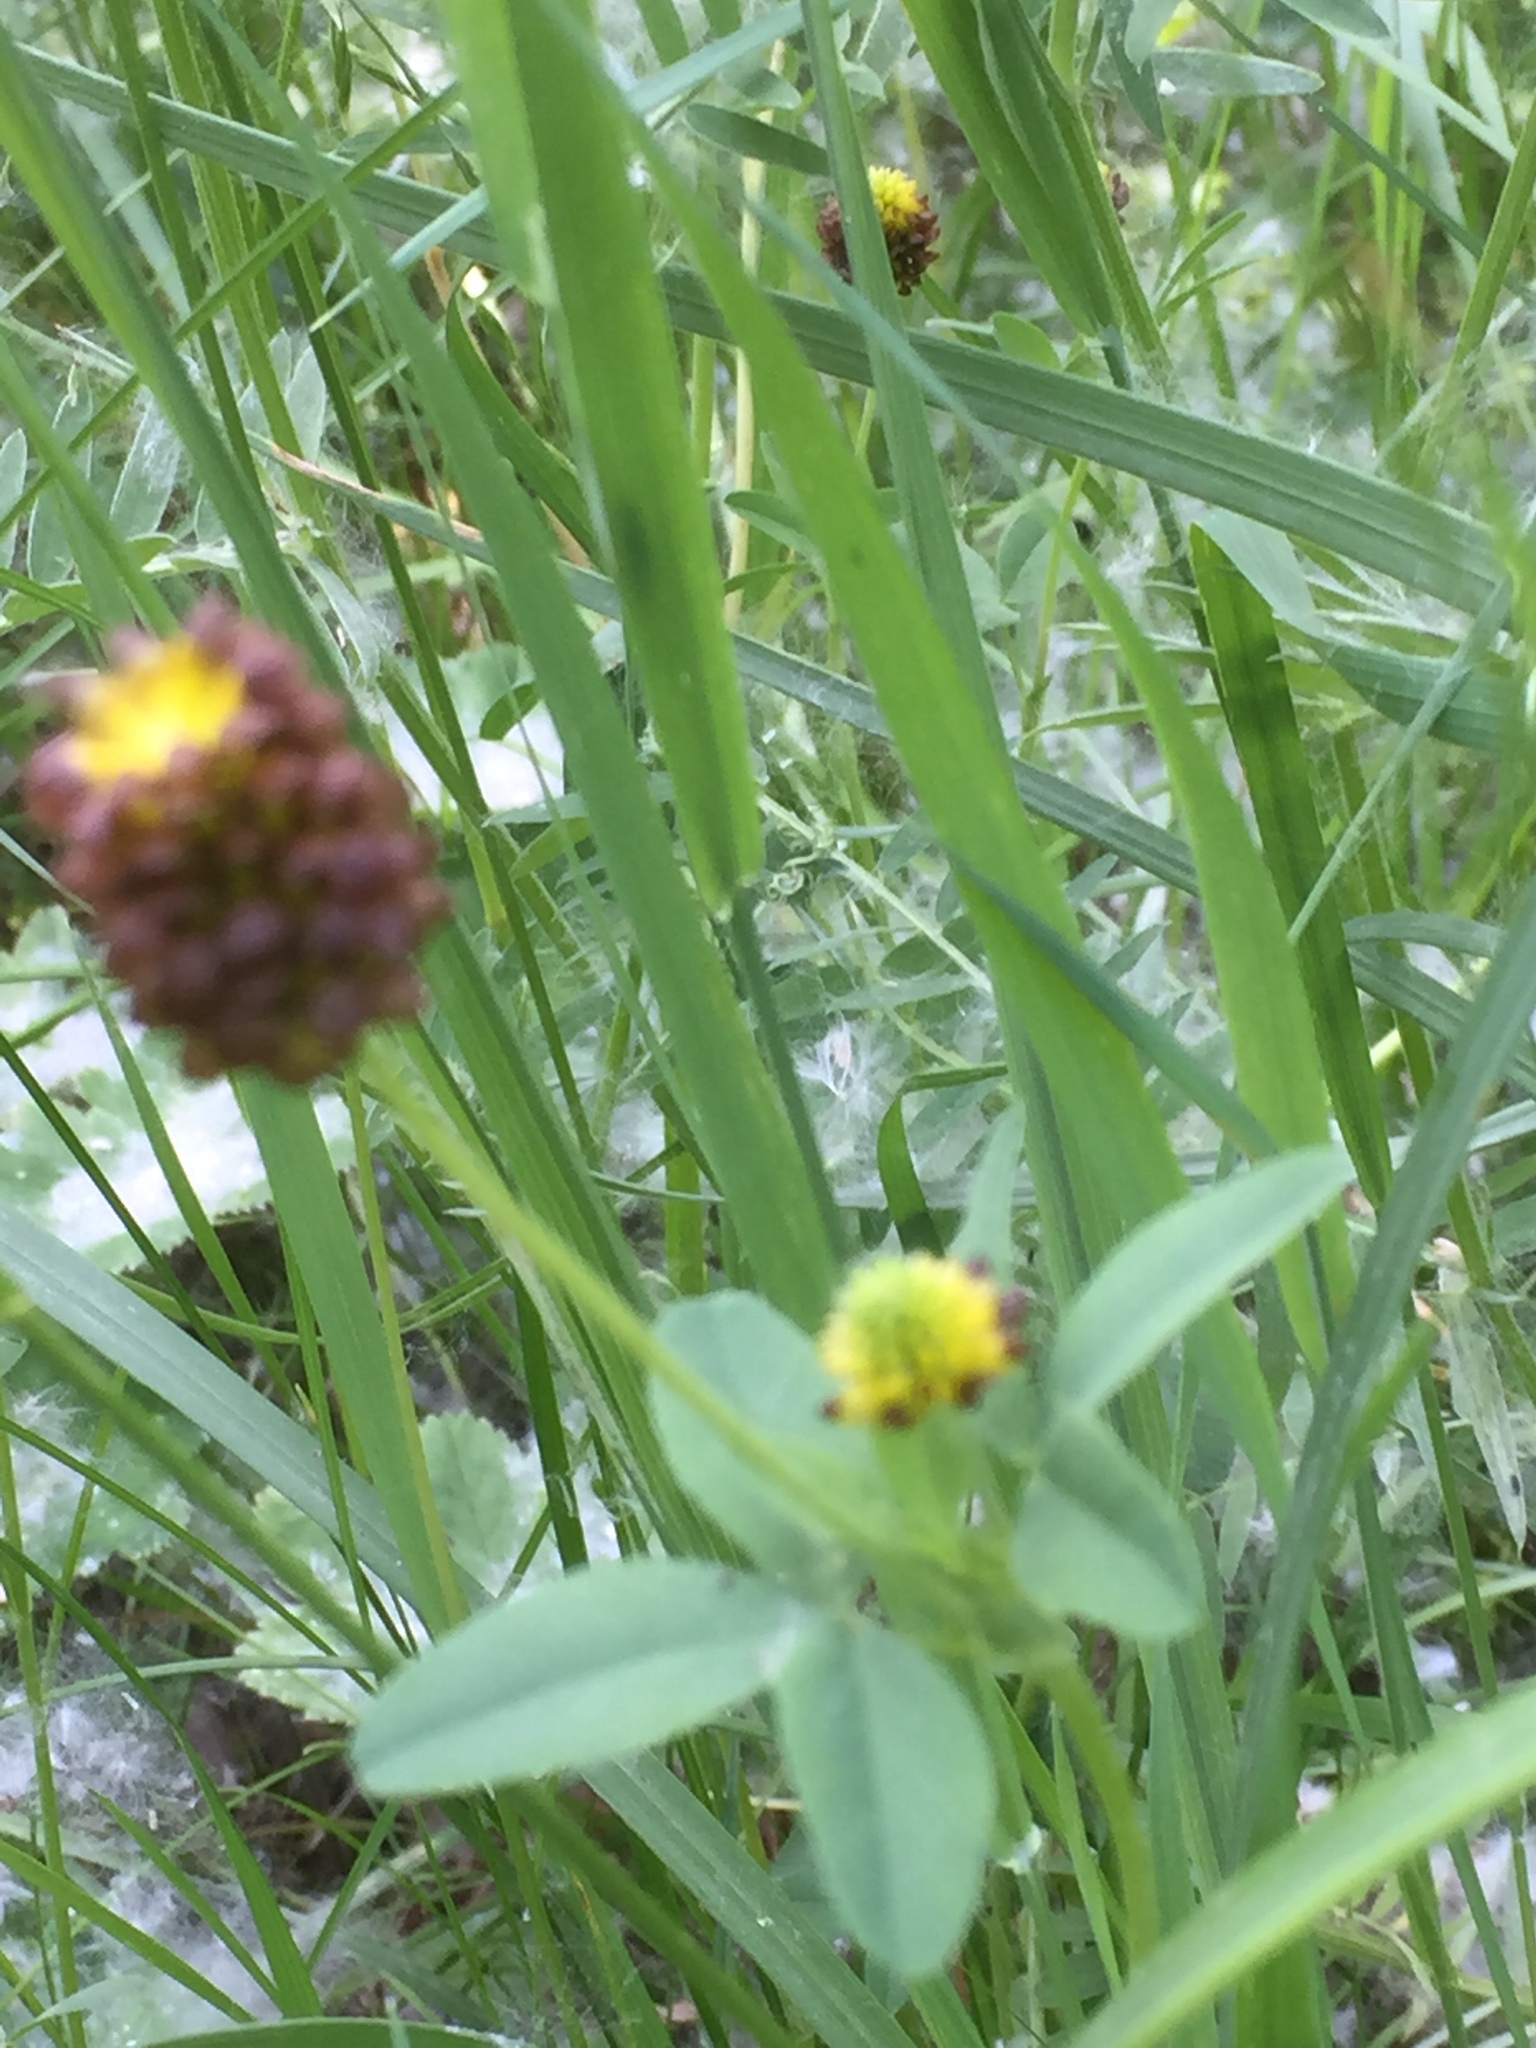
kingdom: Plantae
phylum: Tracheophyta
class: Magnoliopsida
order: Fabales
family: Fabaceae
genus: Trifolium
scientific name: Trifolium spadiceum
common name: Brown moor clover
